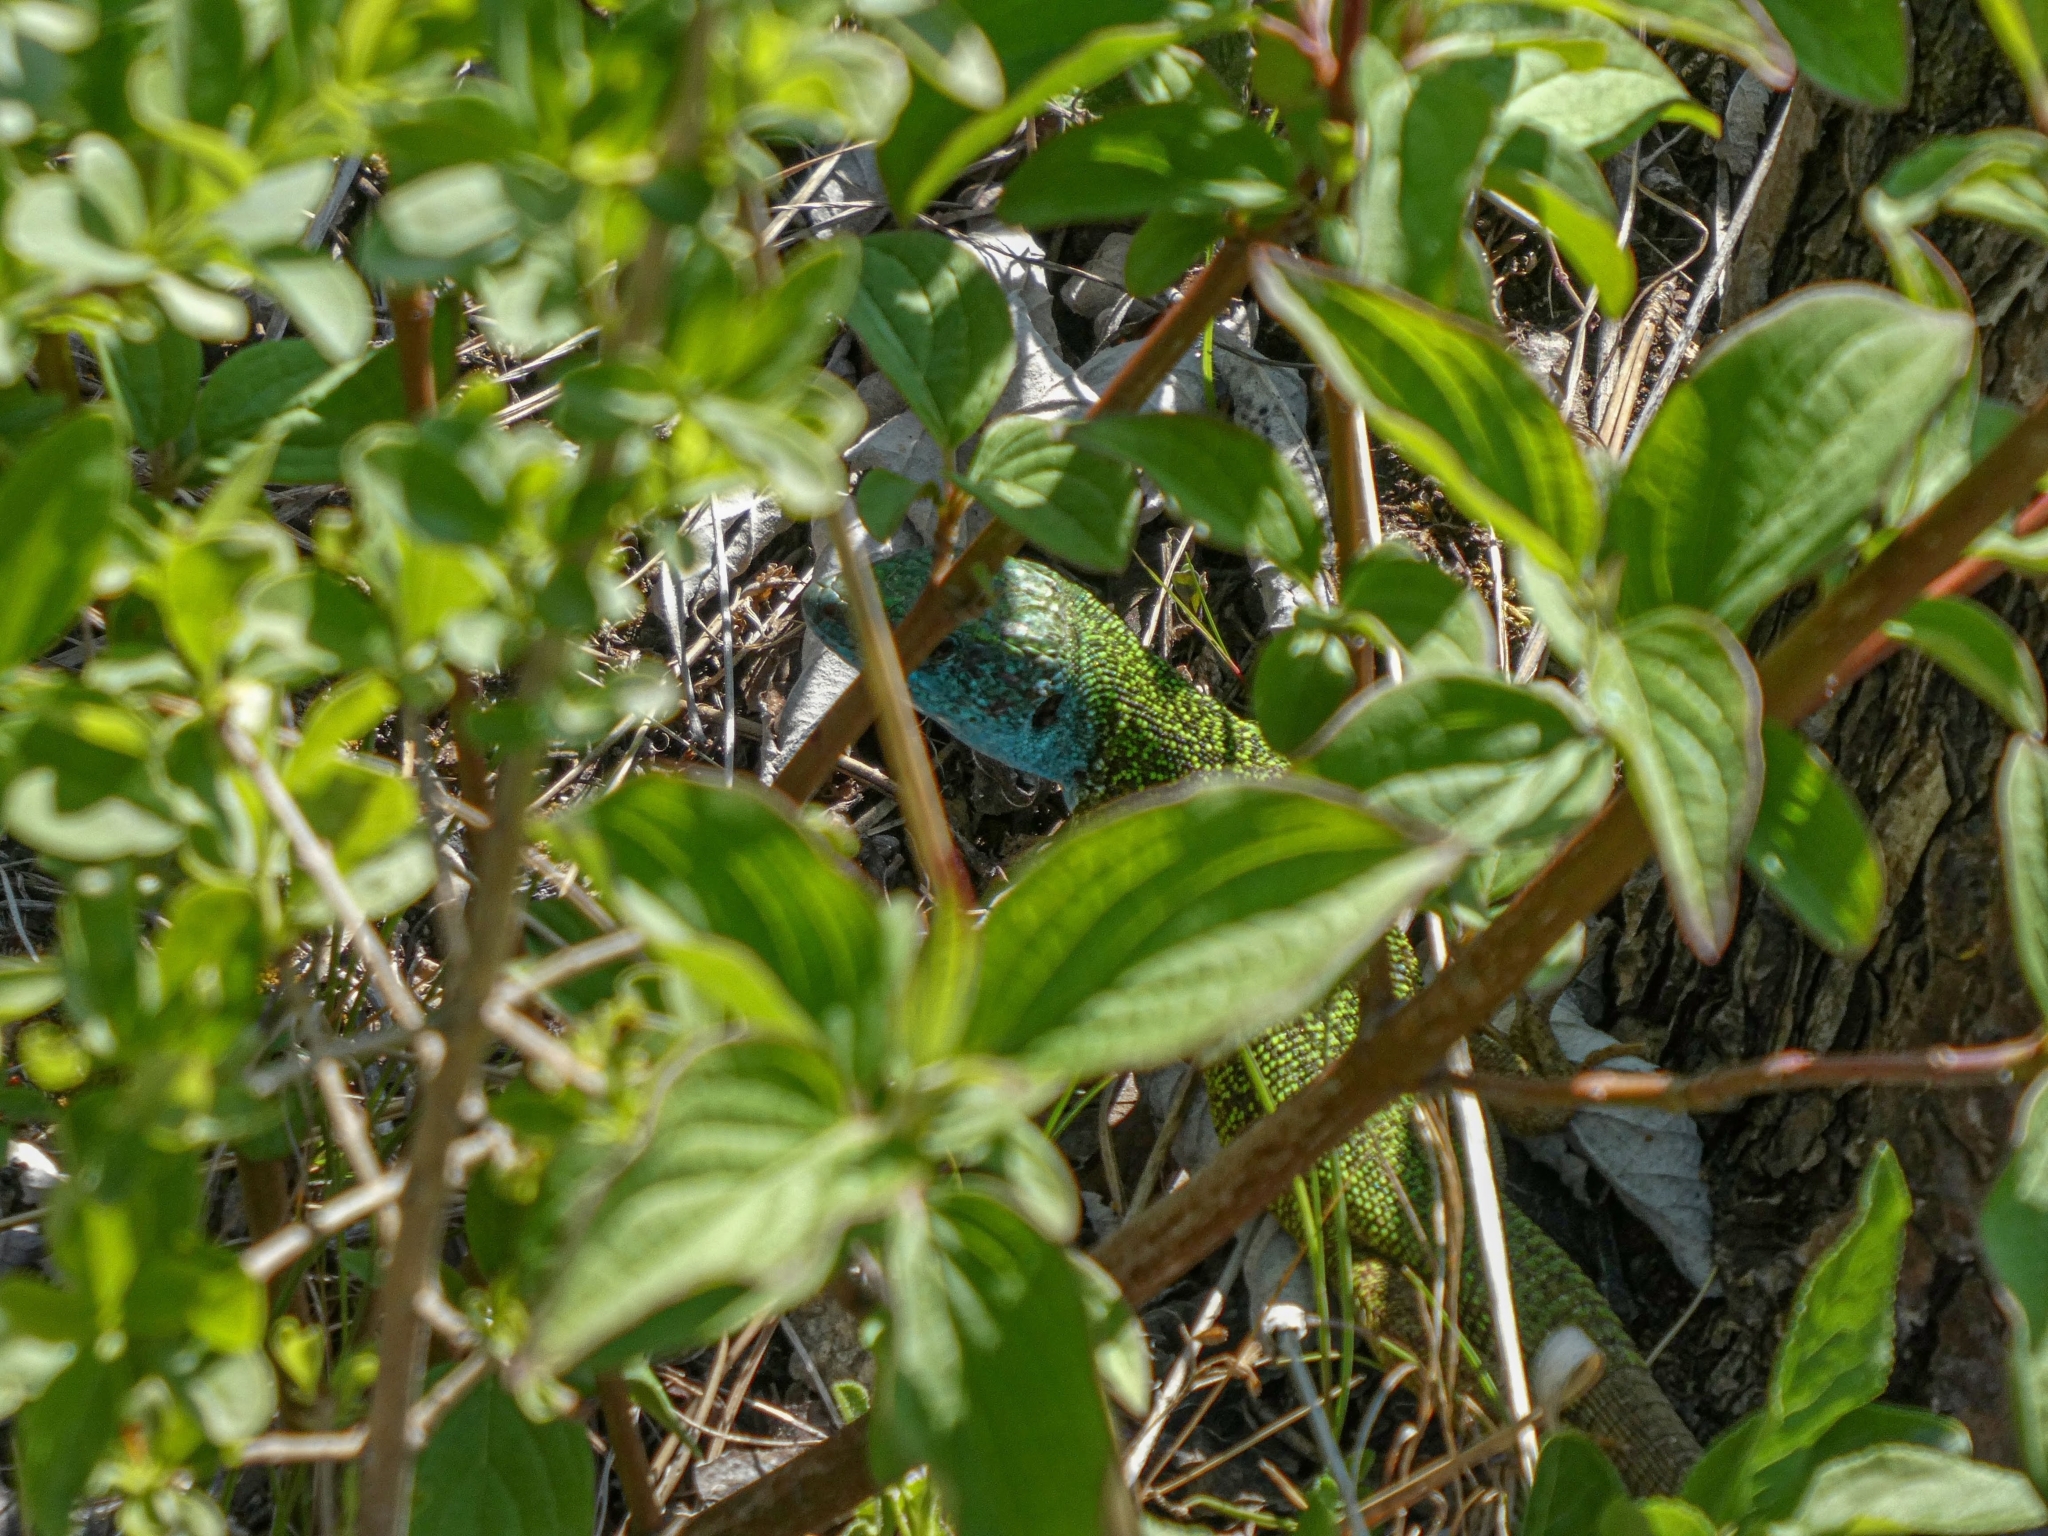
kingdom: Animalia
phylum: Chordata
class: Squamata
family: Lacertidae
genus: Lacerta
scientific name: Lacerta viridis
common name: European green lizard
